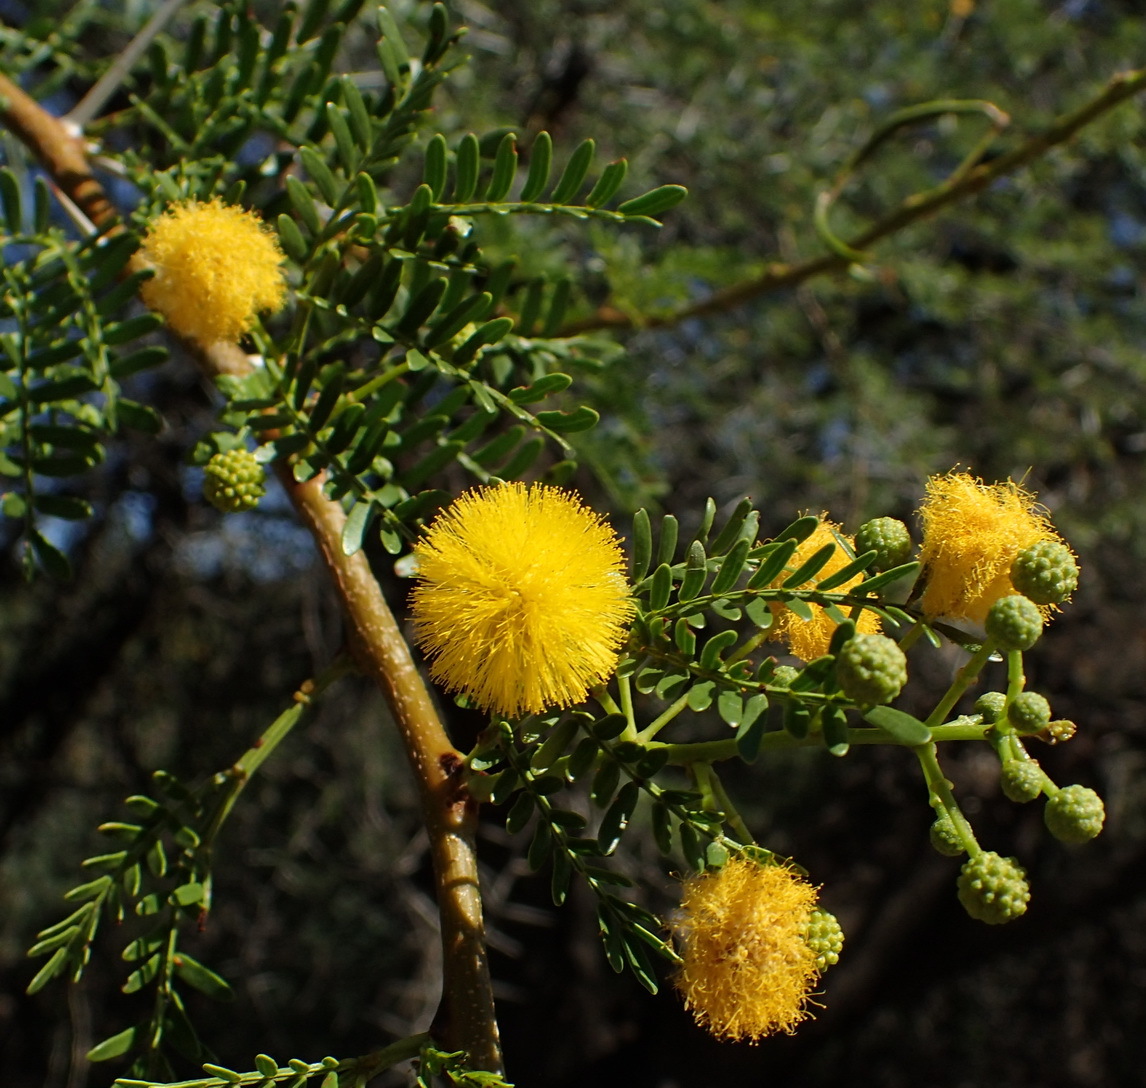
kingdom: Plantae
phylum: Tracheophyta
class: Magnoliopsida
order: Fabales
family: Fabaceae
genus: Vachellia
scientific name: Vachellia karroo
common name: Sweet thorn
